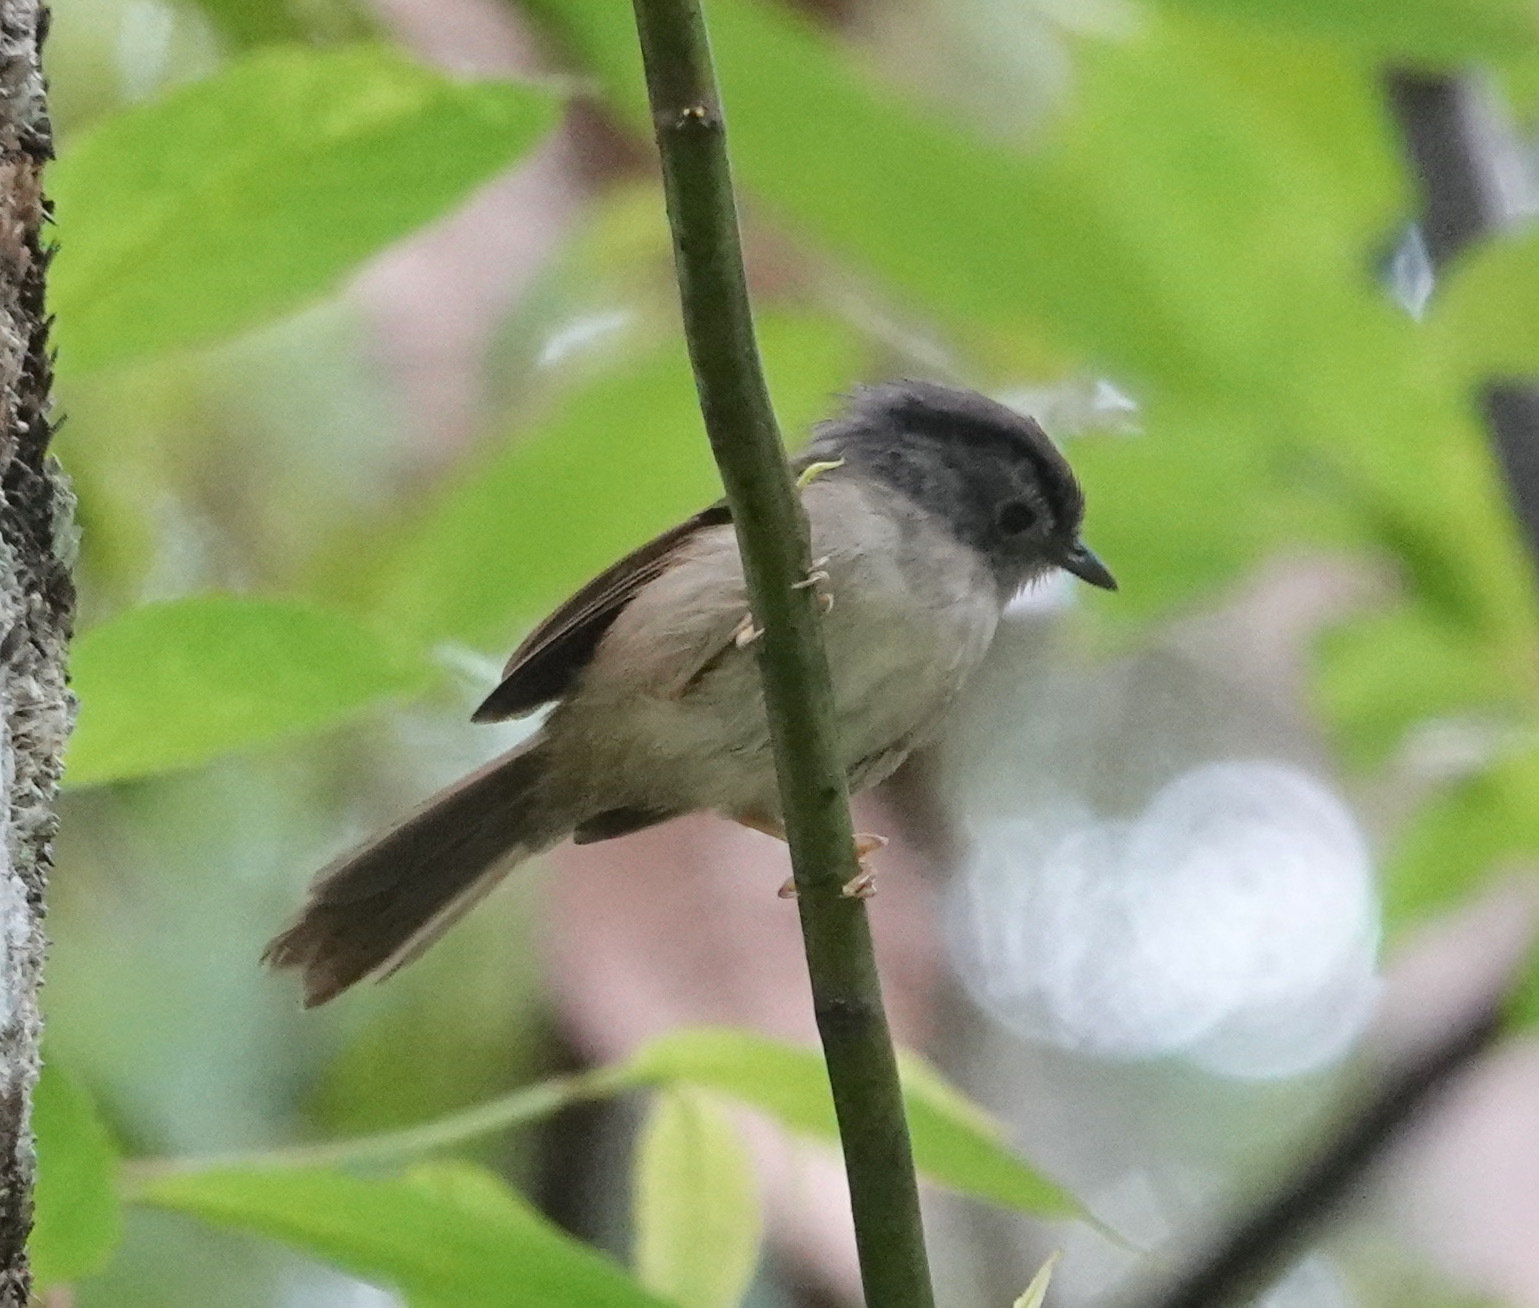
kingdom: Animalia
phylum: Chordata
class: Aves
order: Passeriformes
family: Pellorneidae
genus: Alcippe
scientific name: Alcippe peracensis
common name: Mountain fulvetta
